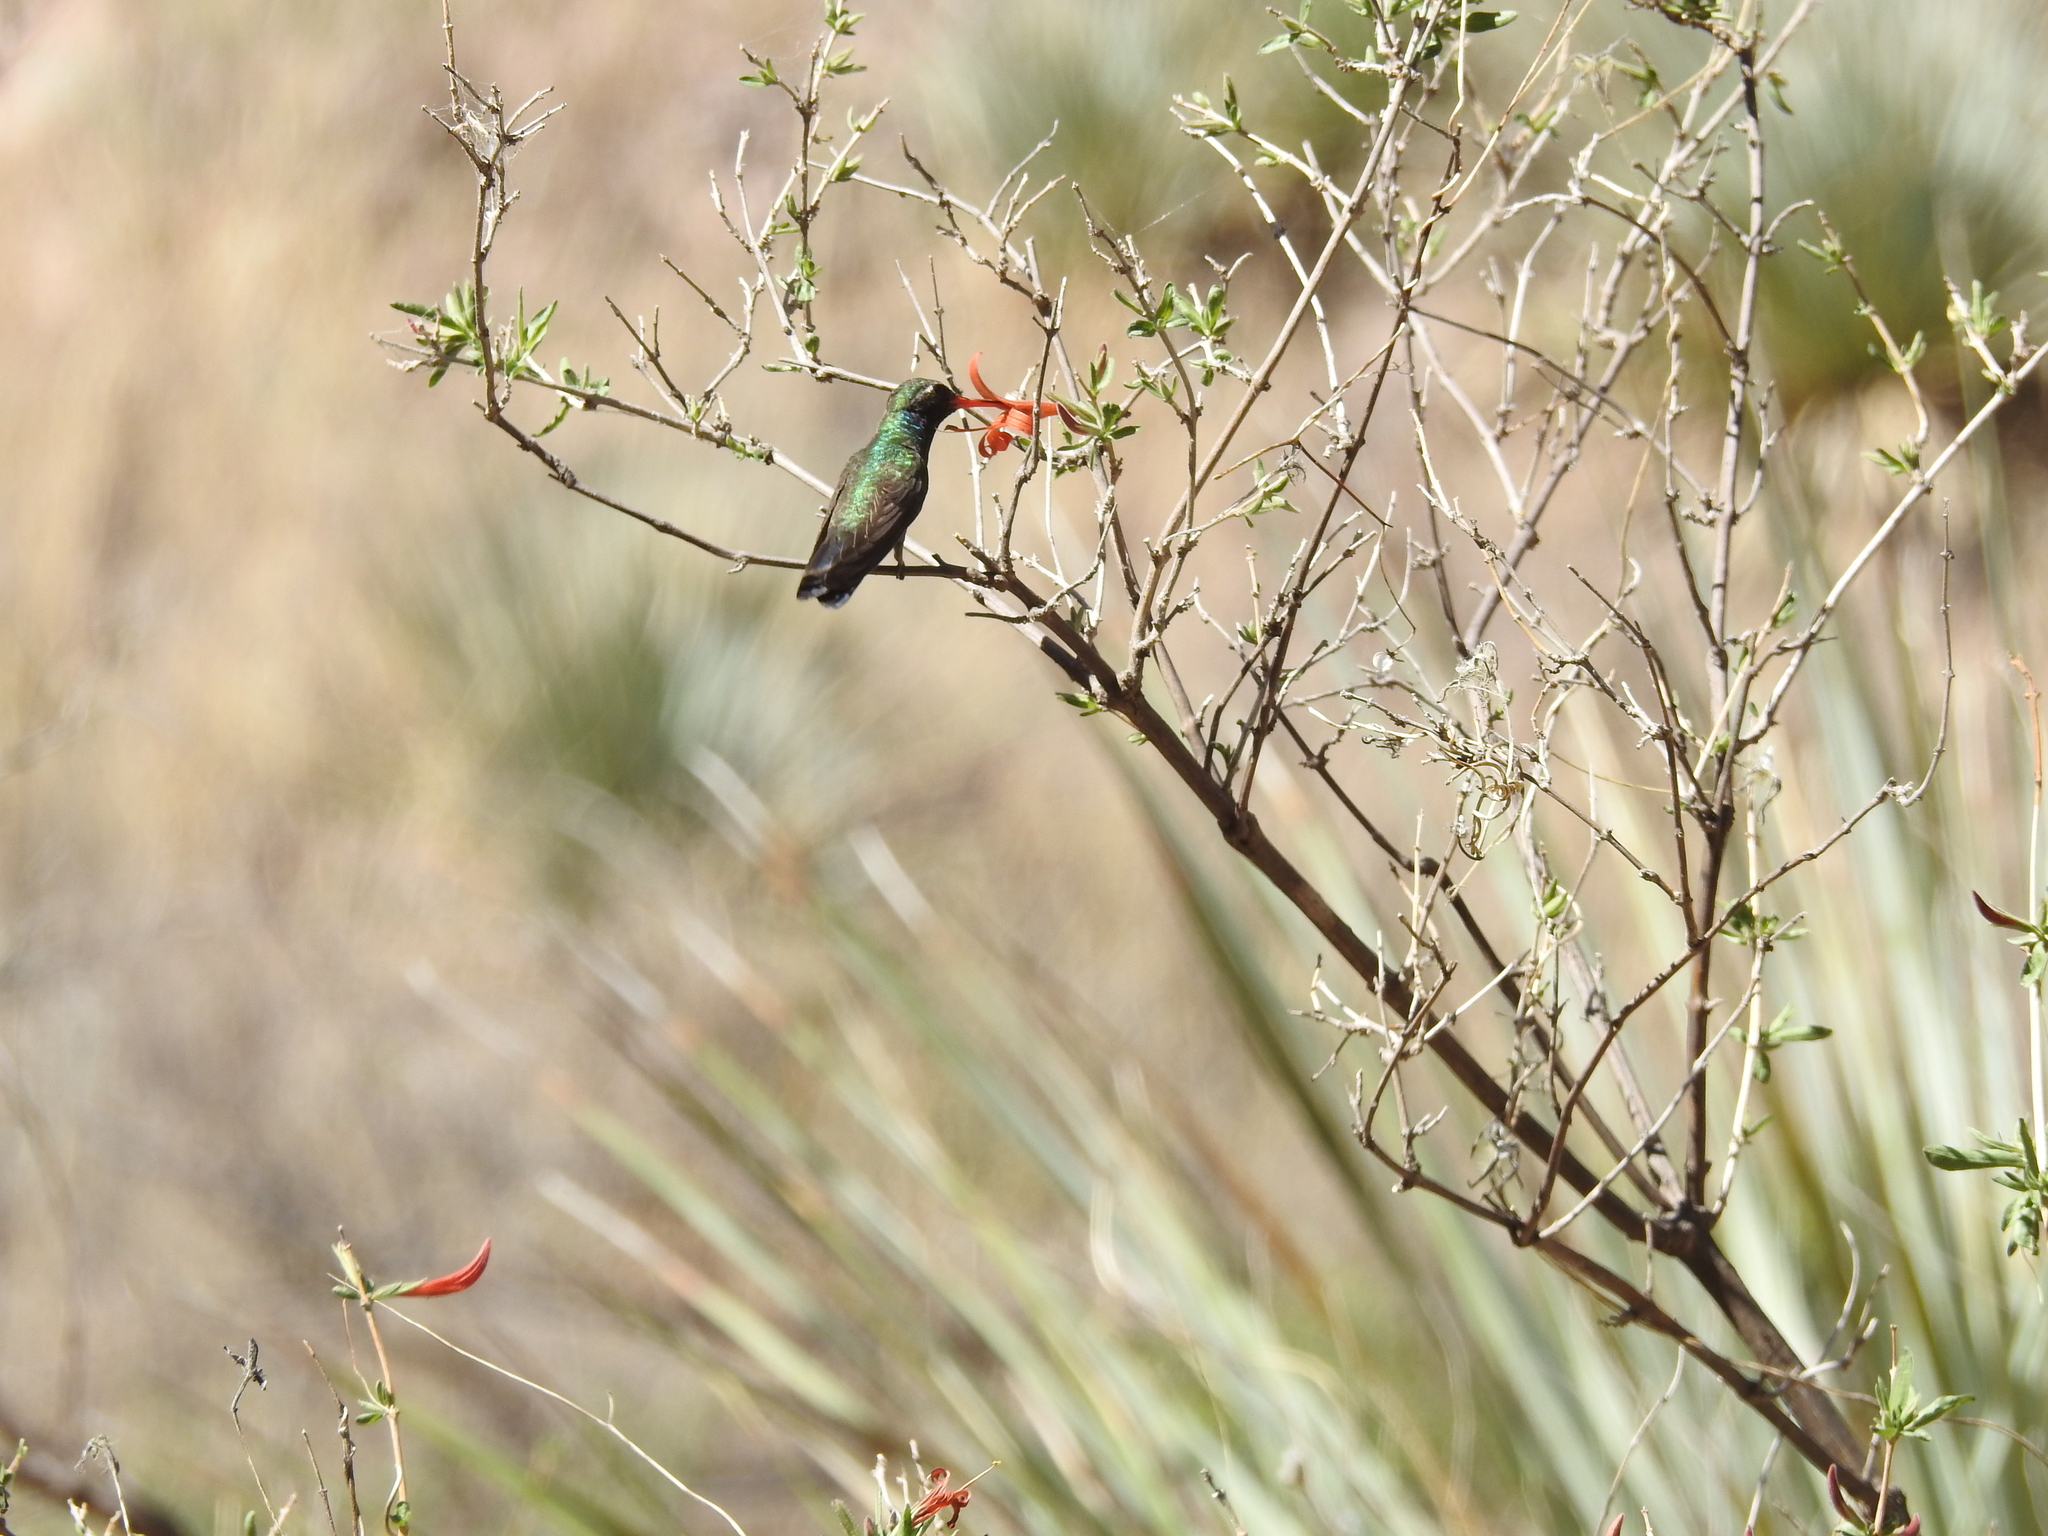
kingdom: Animalia
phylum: Chordata
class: Aves
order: Apodiformes
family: Trochilidae
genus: Cynanthus
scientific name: Cynanthus latirostris
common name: Broad-billed hummingbird
